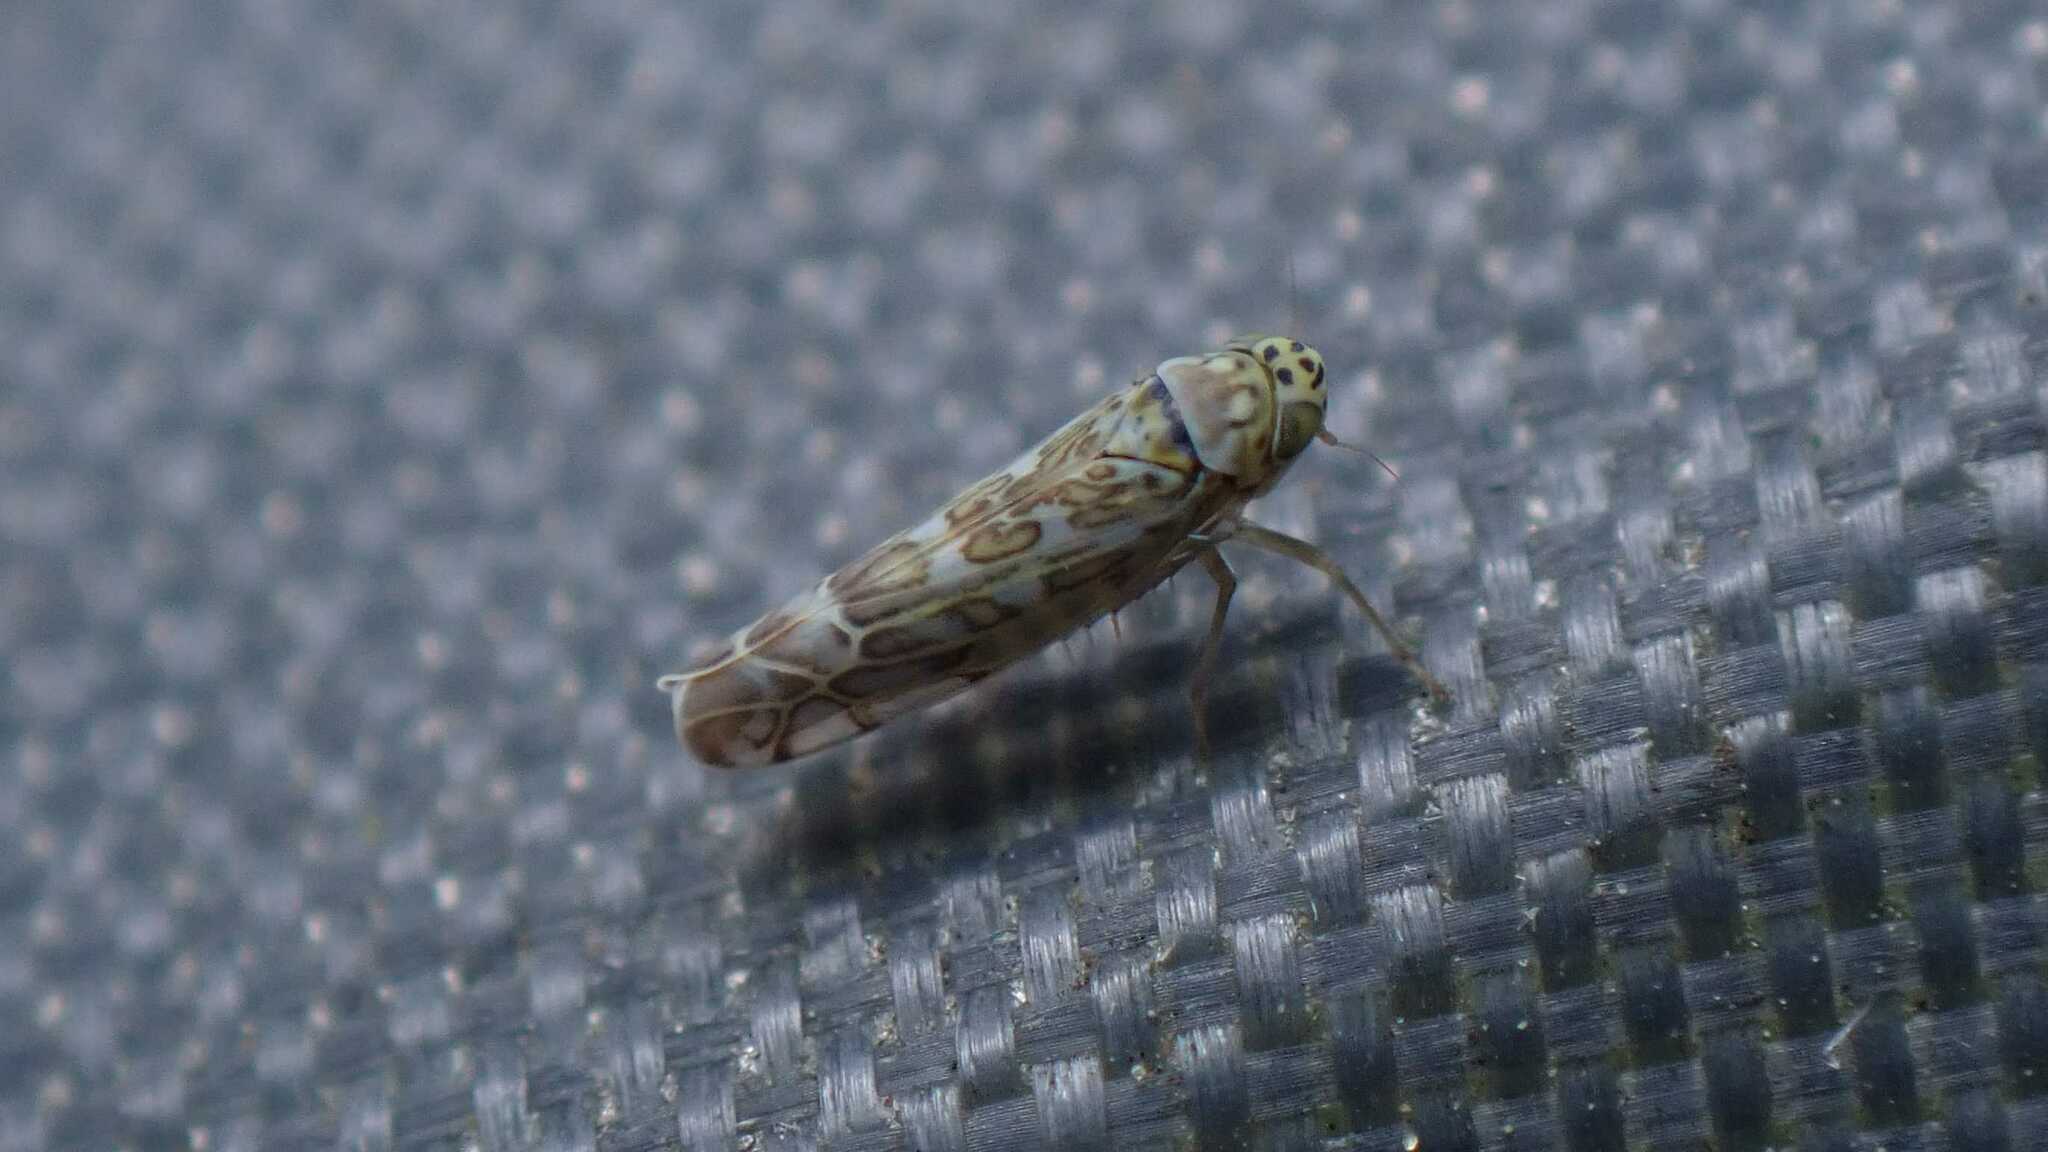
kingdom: Animalia
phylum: Arthropoda
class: Insecta
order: Hemiptera
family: Cicadellidae
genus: Eupteryx
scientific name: Eupteryx decemnotata
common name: Ligurian leafhopper
